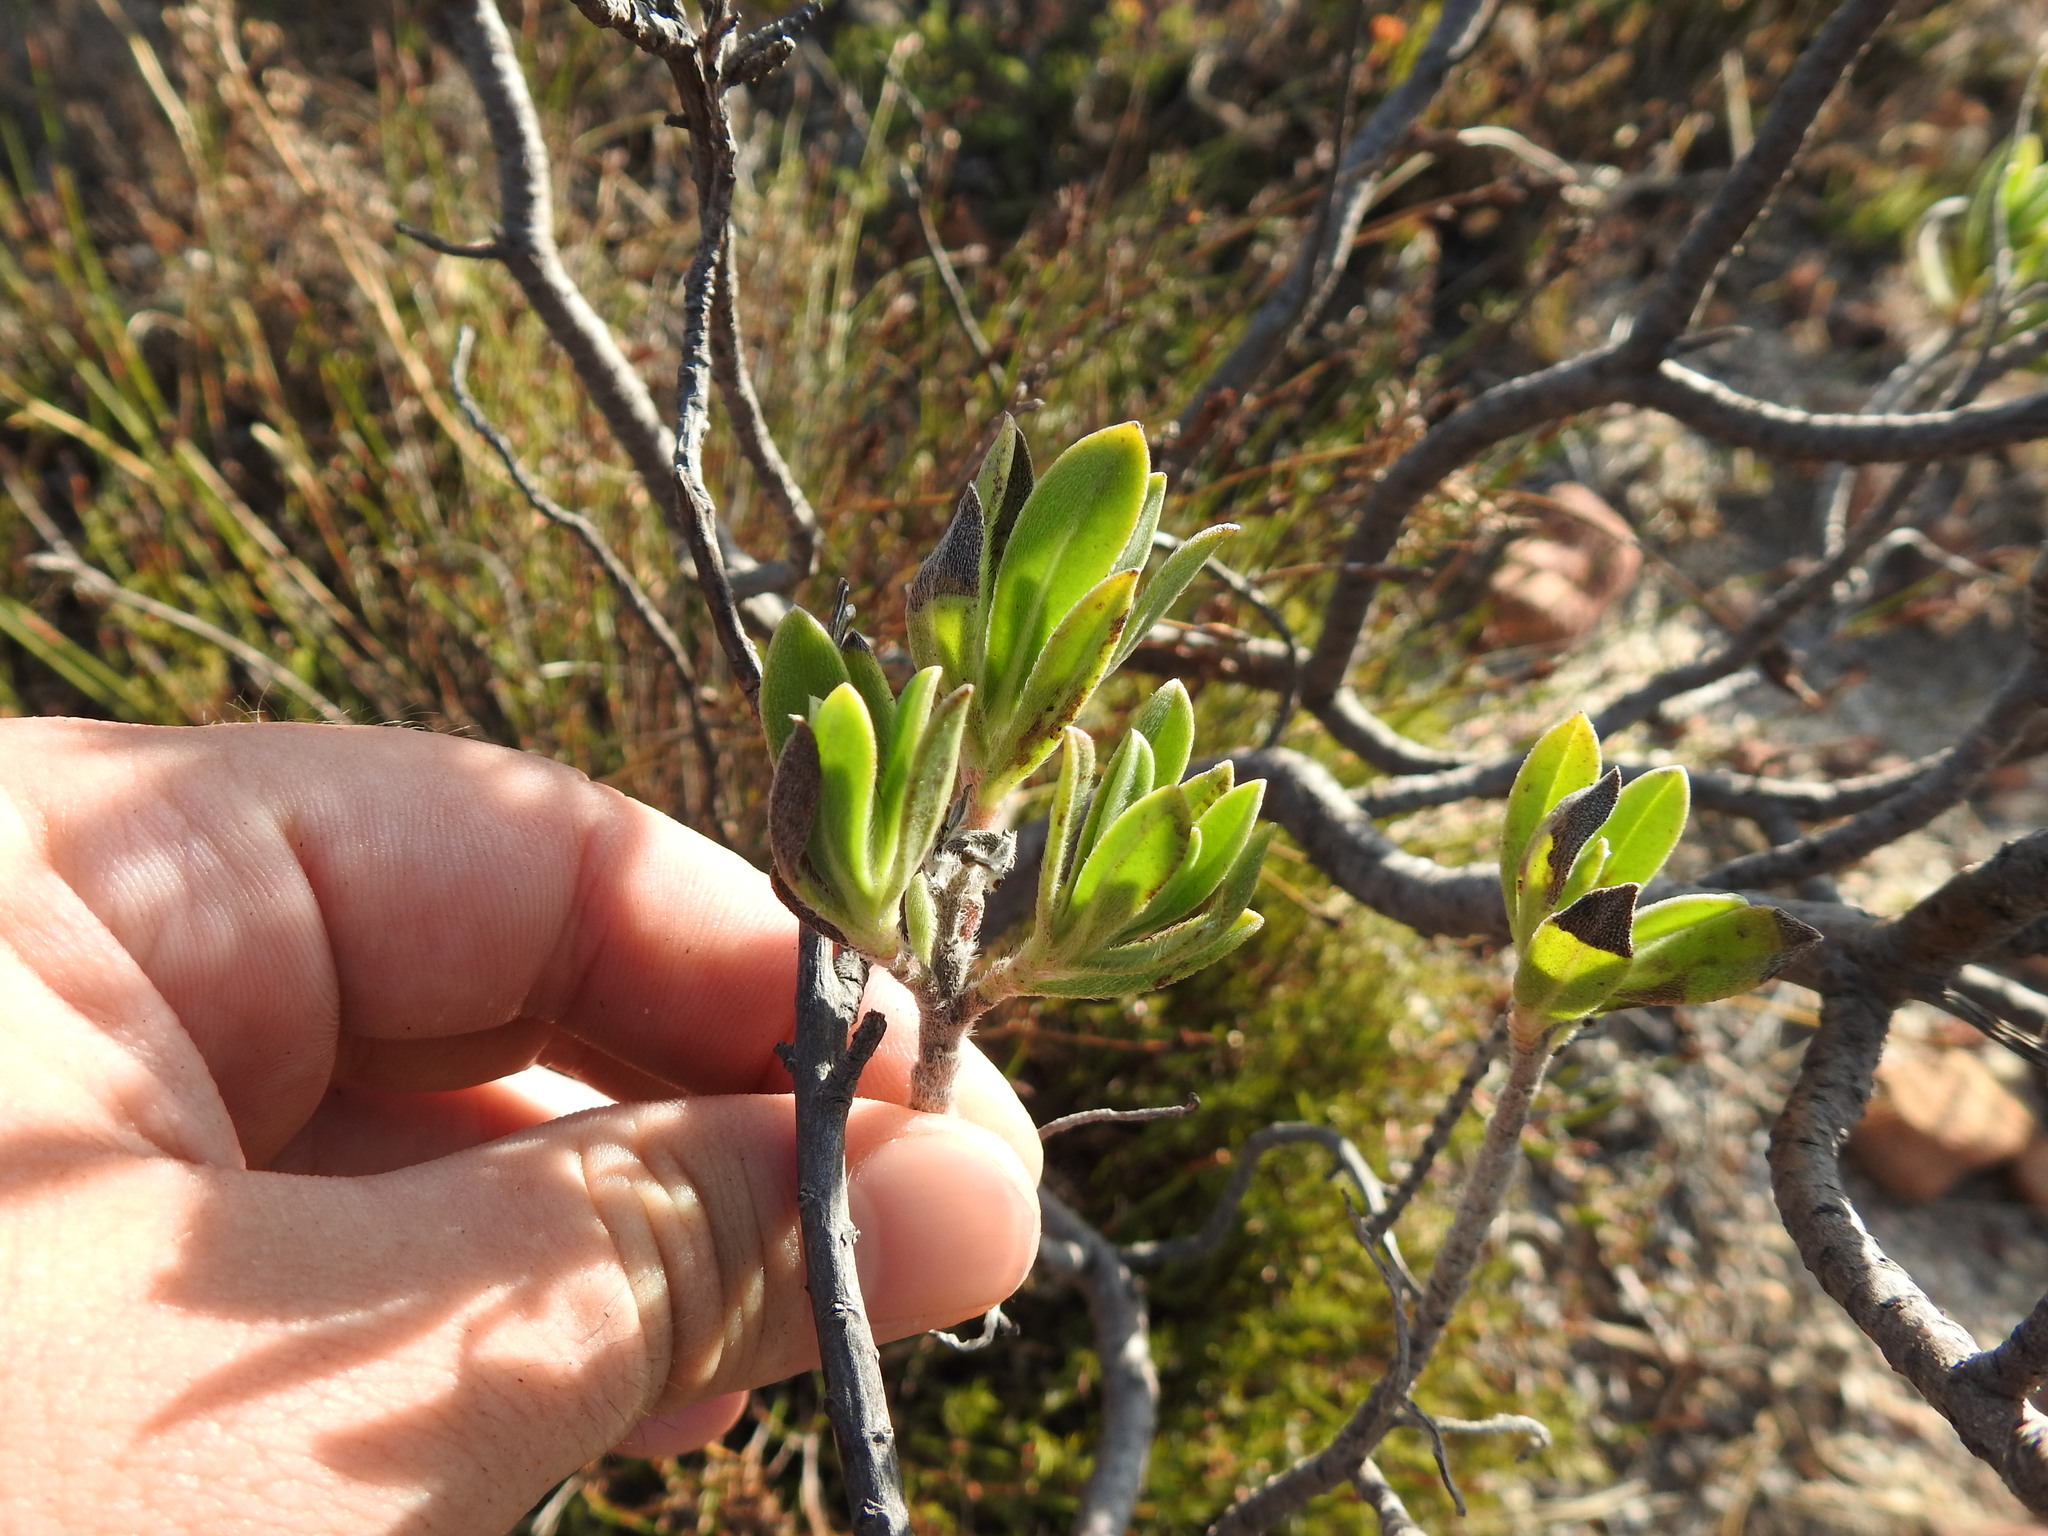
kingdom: Plantae
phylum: Tracheophyta
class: Magnoliopsida
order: Boraginales
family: Boraginaceae
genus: Lobostemon
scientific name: Lobostemon fruticosus
